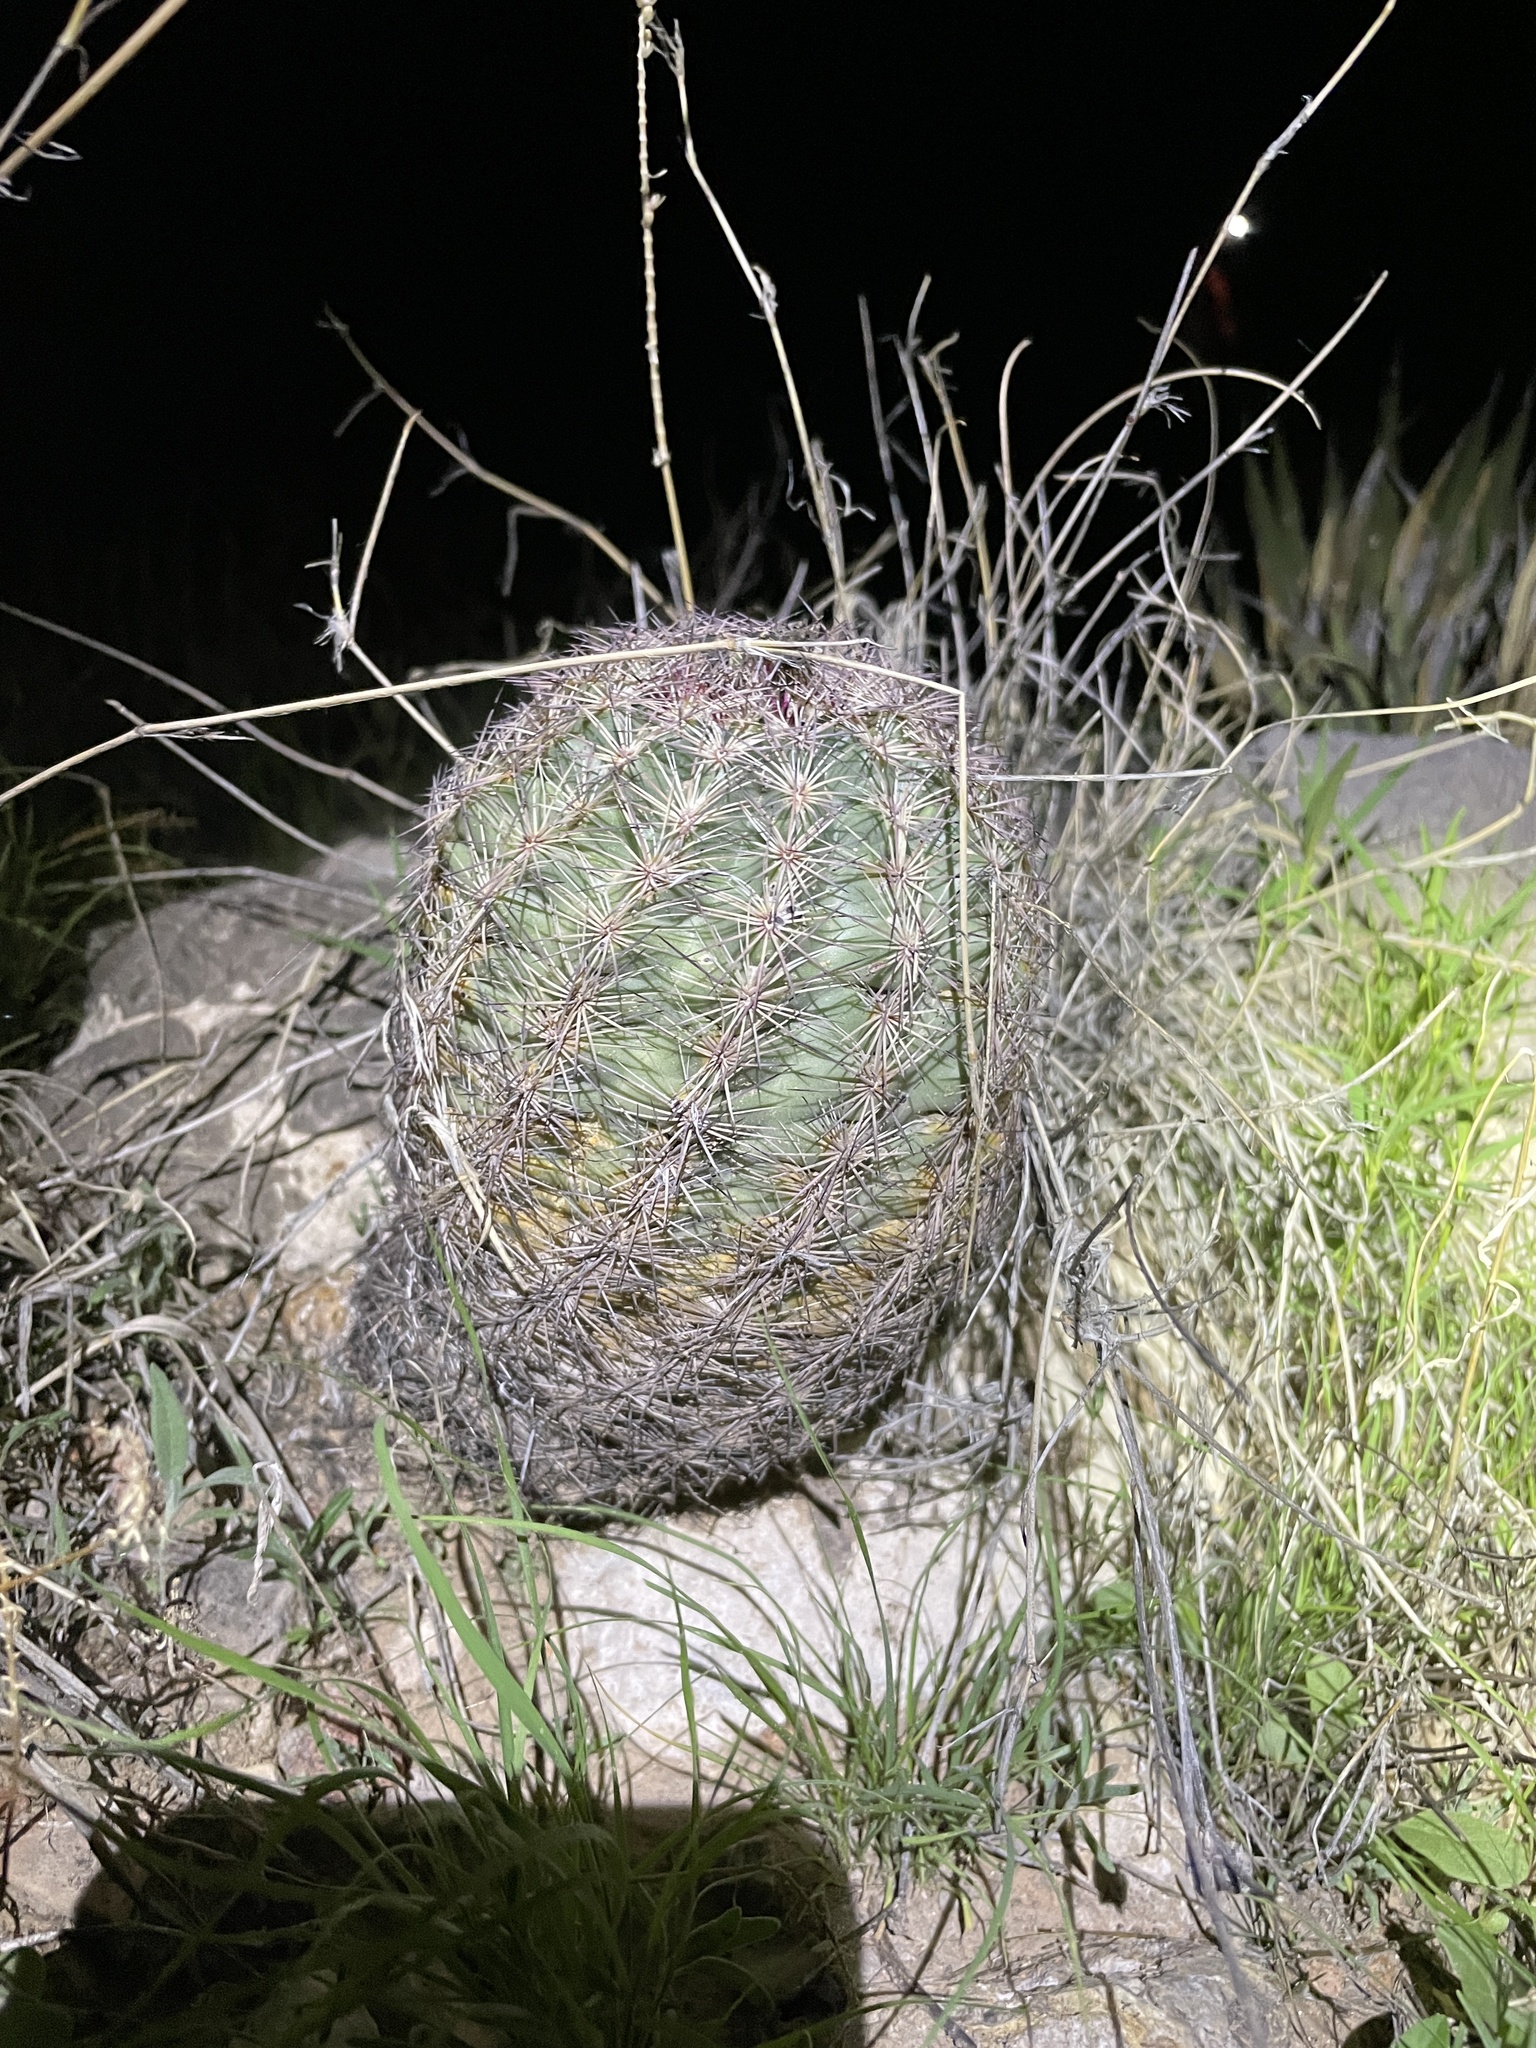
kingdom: Plantae
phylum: Tracheophyta
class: Magnoliopsida
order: Caryophyllales
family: Cactaceae
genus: Sclerocactus
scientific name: Sclerocactus intertextus
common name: White fish-hook cactus
